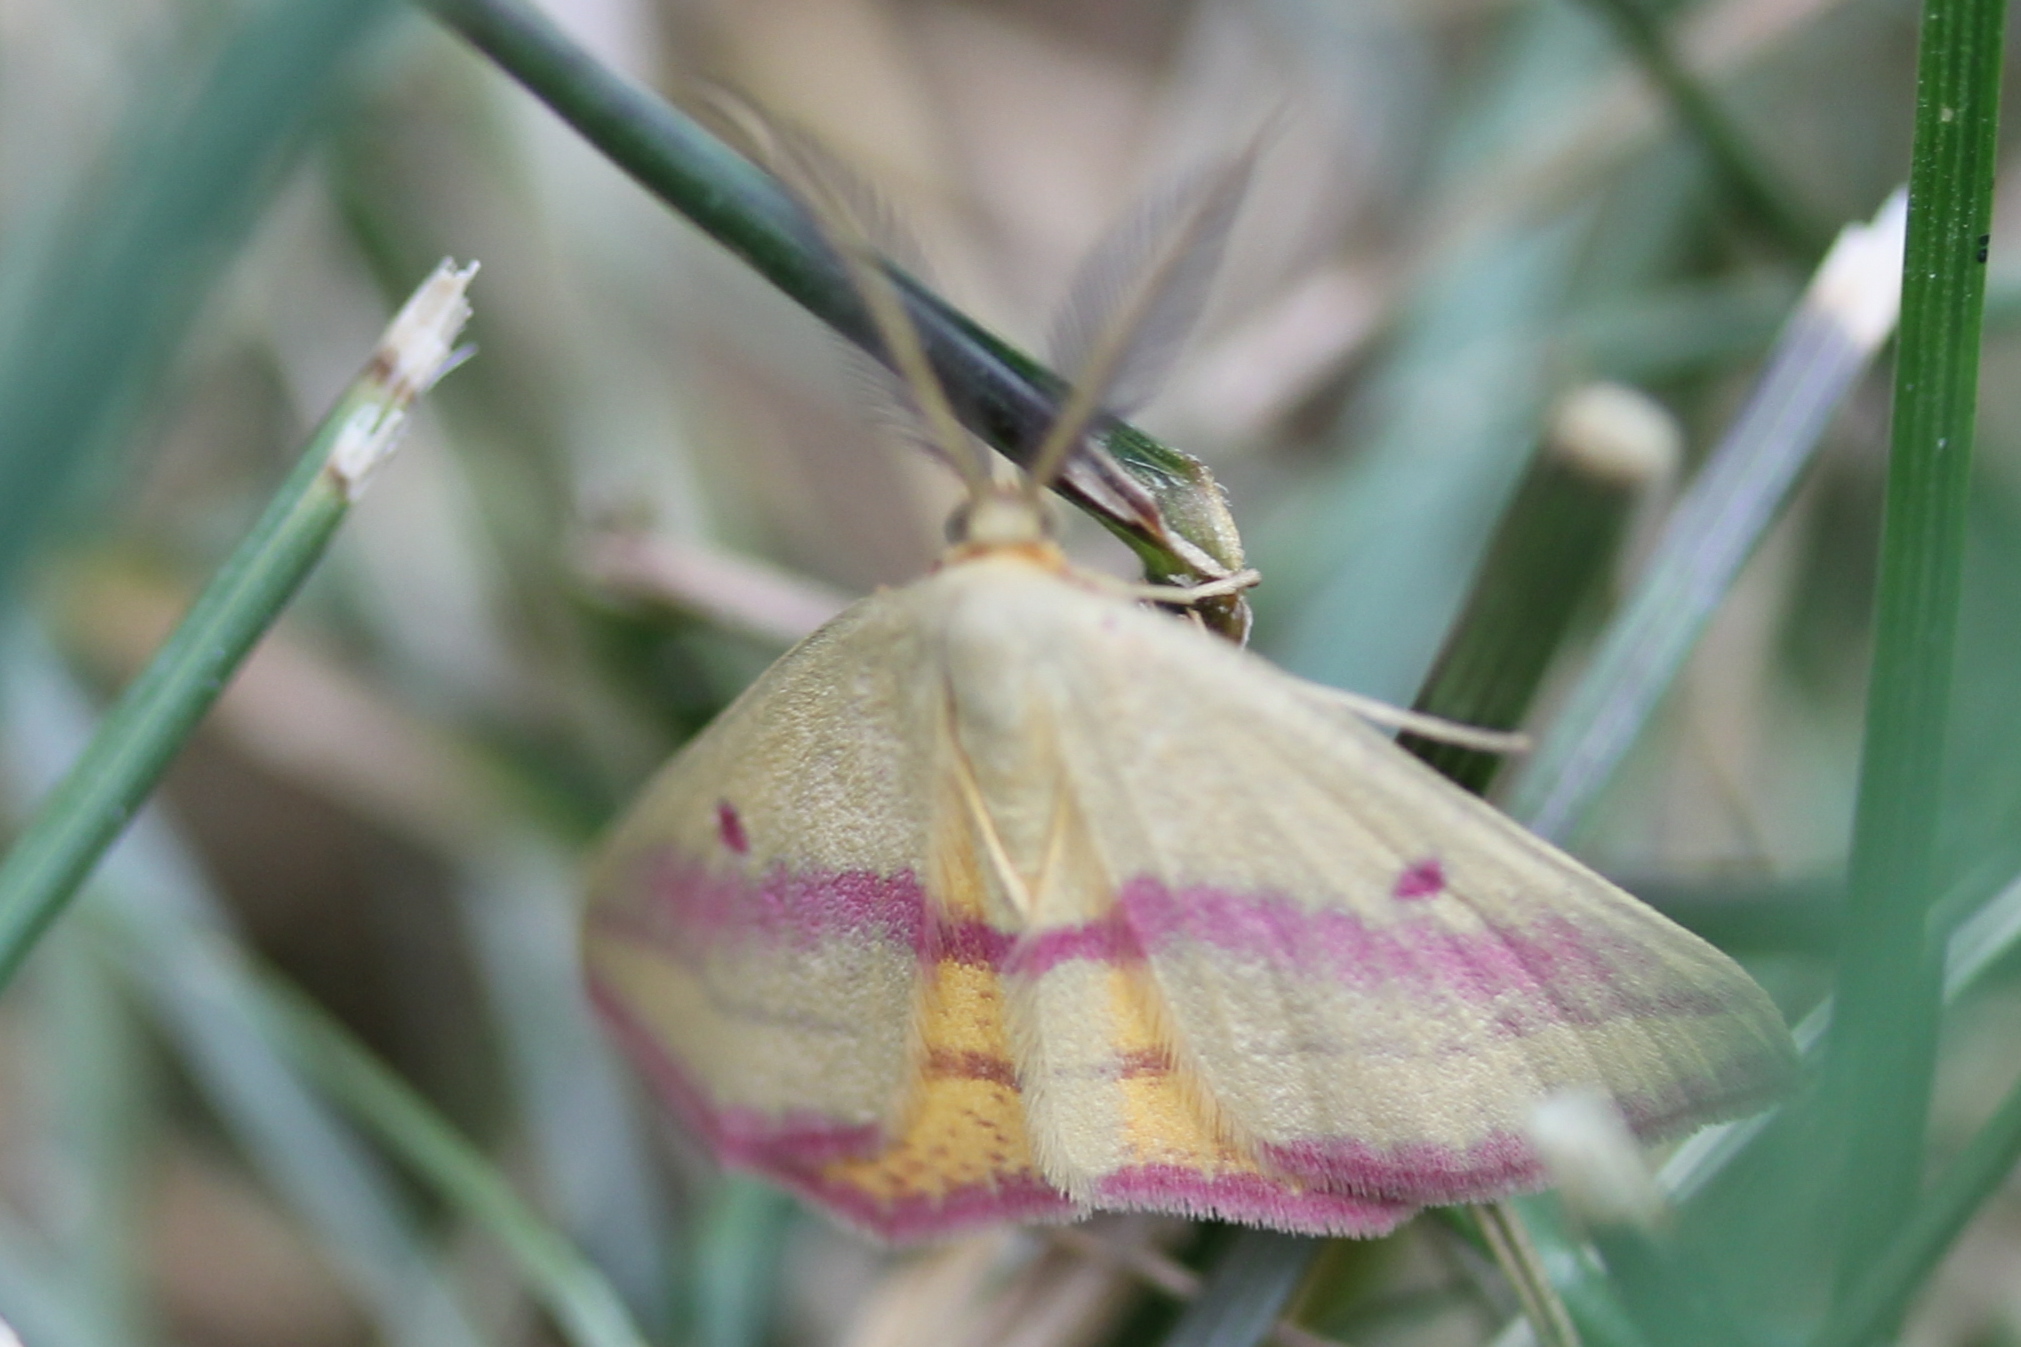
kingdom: Animalia
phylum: Arthropoda
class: Insecta
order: Lepidoptera
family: Geometridae
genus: Haematopis
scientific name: Haematopis grataria
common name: Chickweed geometer
